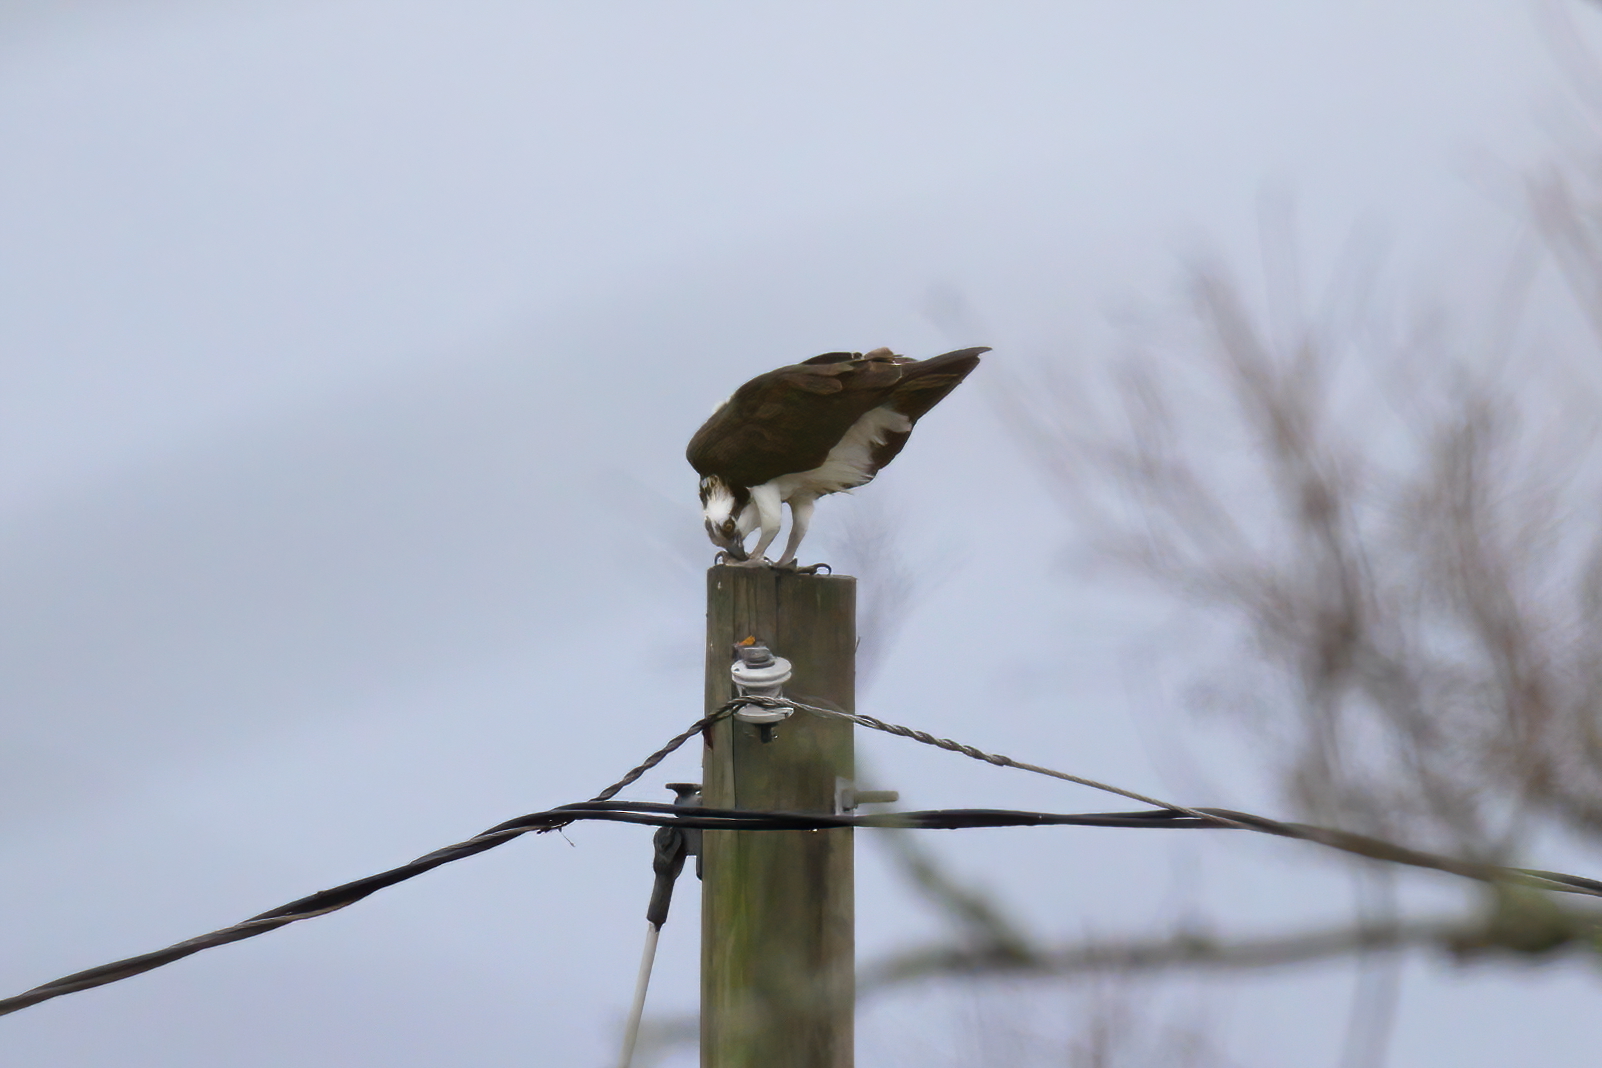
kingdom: Animalia
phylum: Chordata
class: Aves
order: Accipitriformes
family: Pandionidae
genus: Pandion
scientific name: Pandion haliaetus
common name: Osprey
